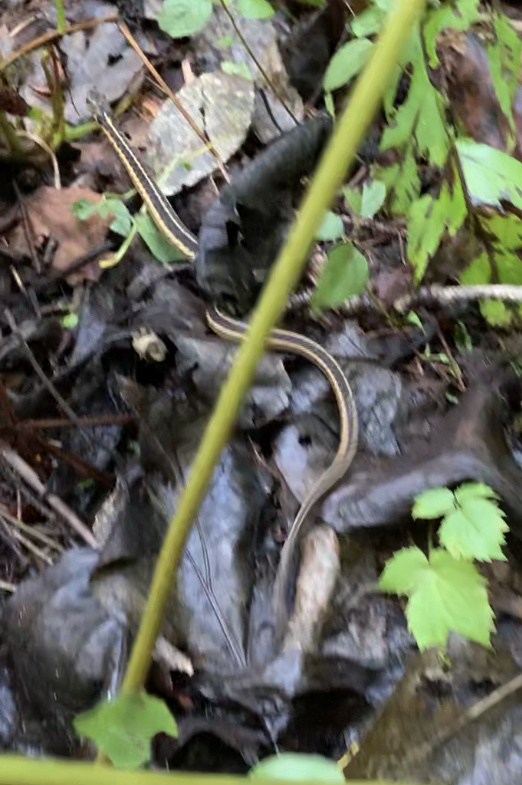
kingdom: Animalia
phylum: Chordata
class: Squamata
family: Colubridae
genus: Thamnophis
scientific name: Thamnophis sirtalis
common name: Common garter snake
